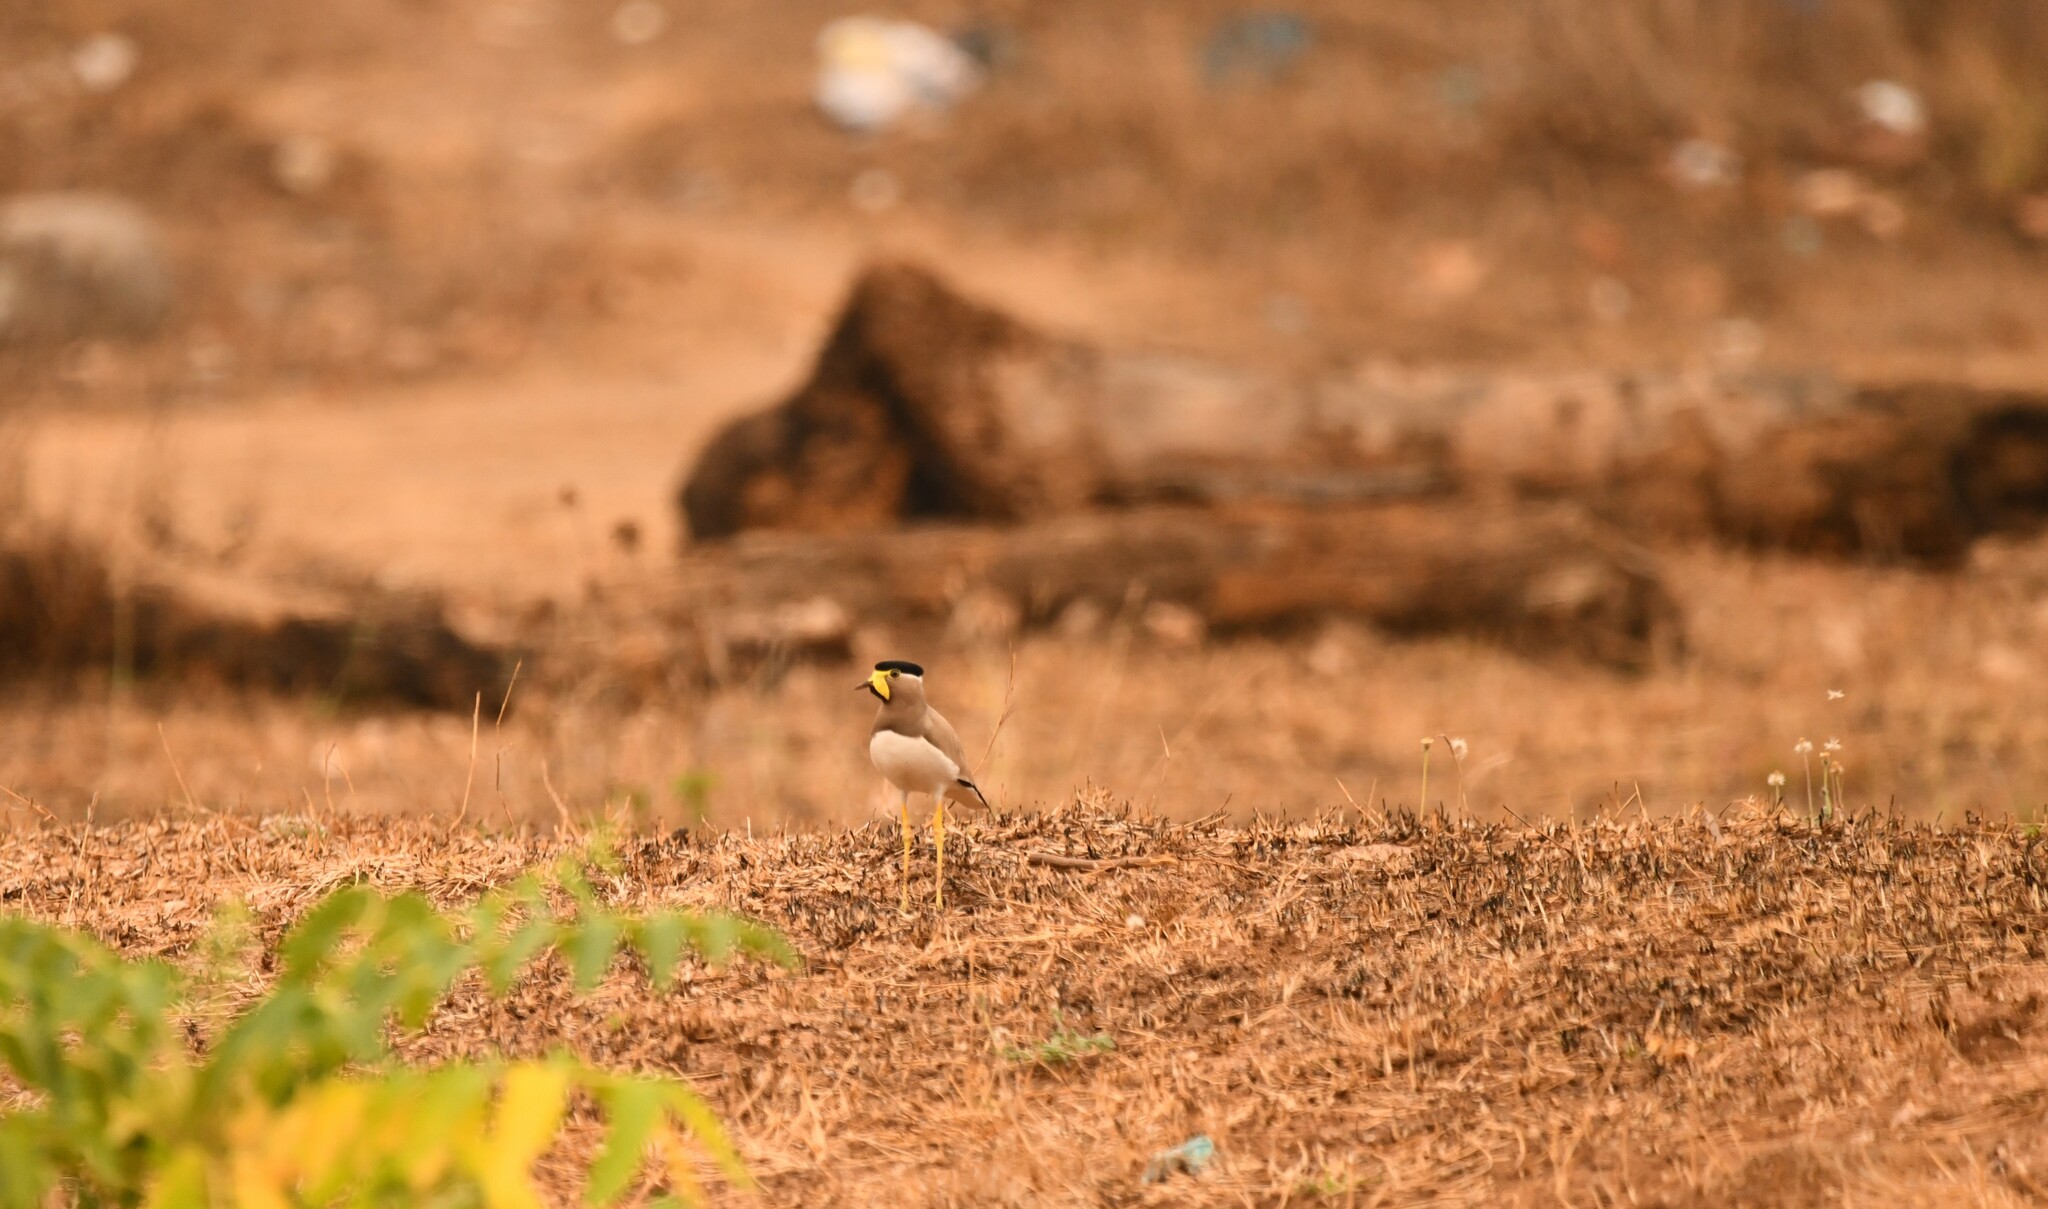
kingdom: Animalia
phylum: Chordata
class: Aves
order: Charadriiformes
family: Charadriidae
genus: Vanellus
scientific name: Vanellus malabaricus
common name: Yellow-wattled lapwing
